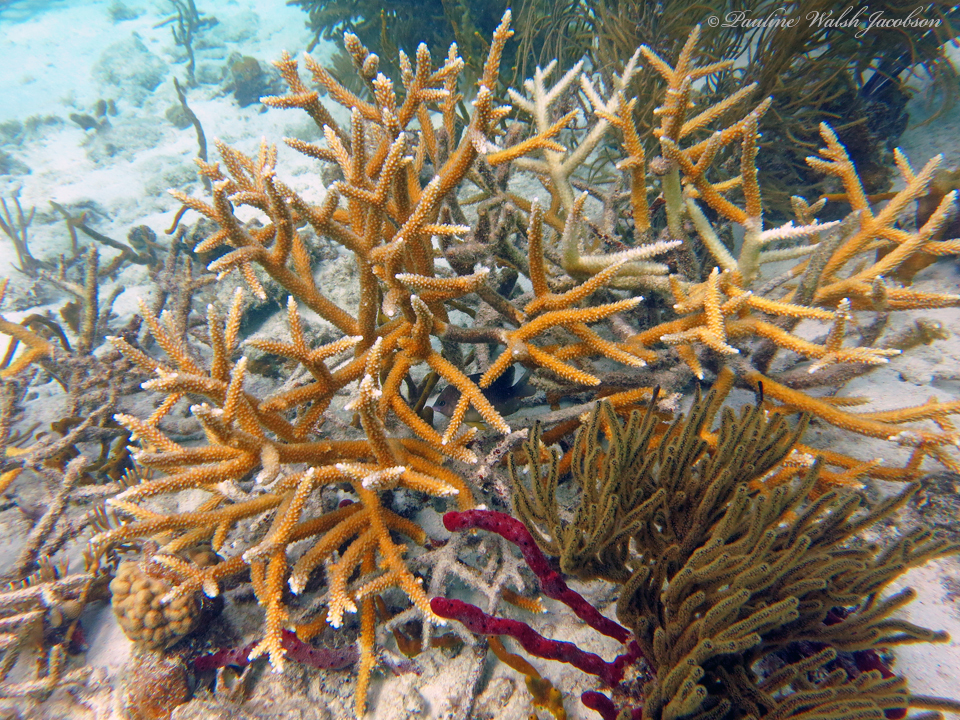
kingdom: Animalia
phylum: Cnidaria
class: Anthozoa
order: Scleractinia
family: Acroporidae
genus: Acropora
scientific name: Acropora cervicornis
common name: Staghorn coral
